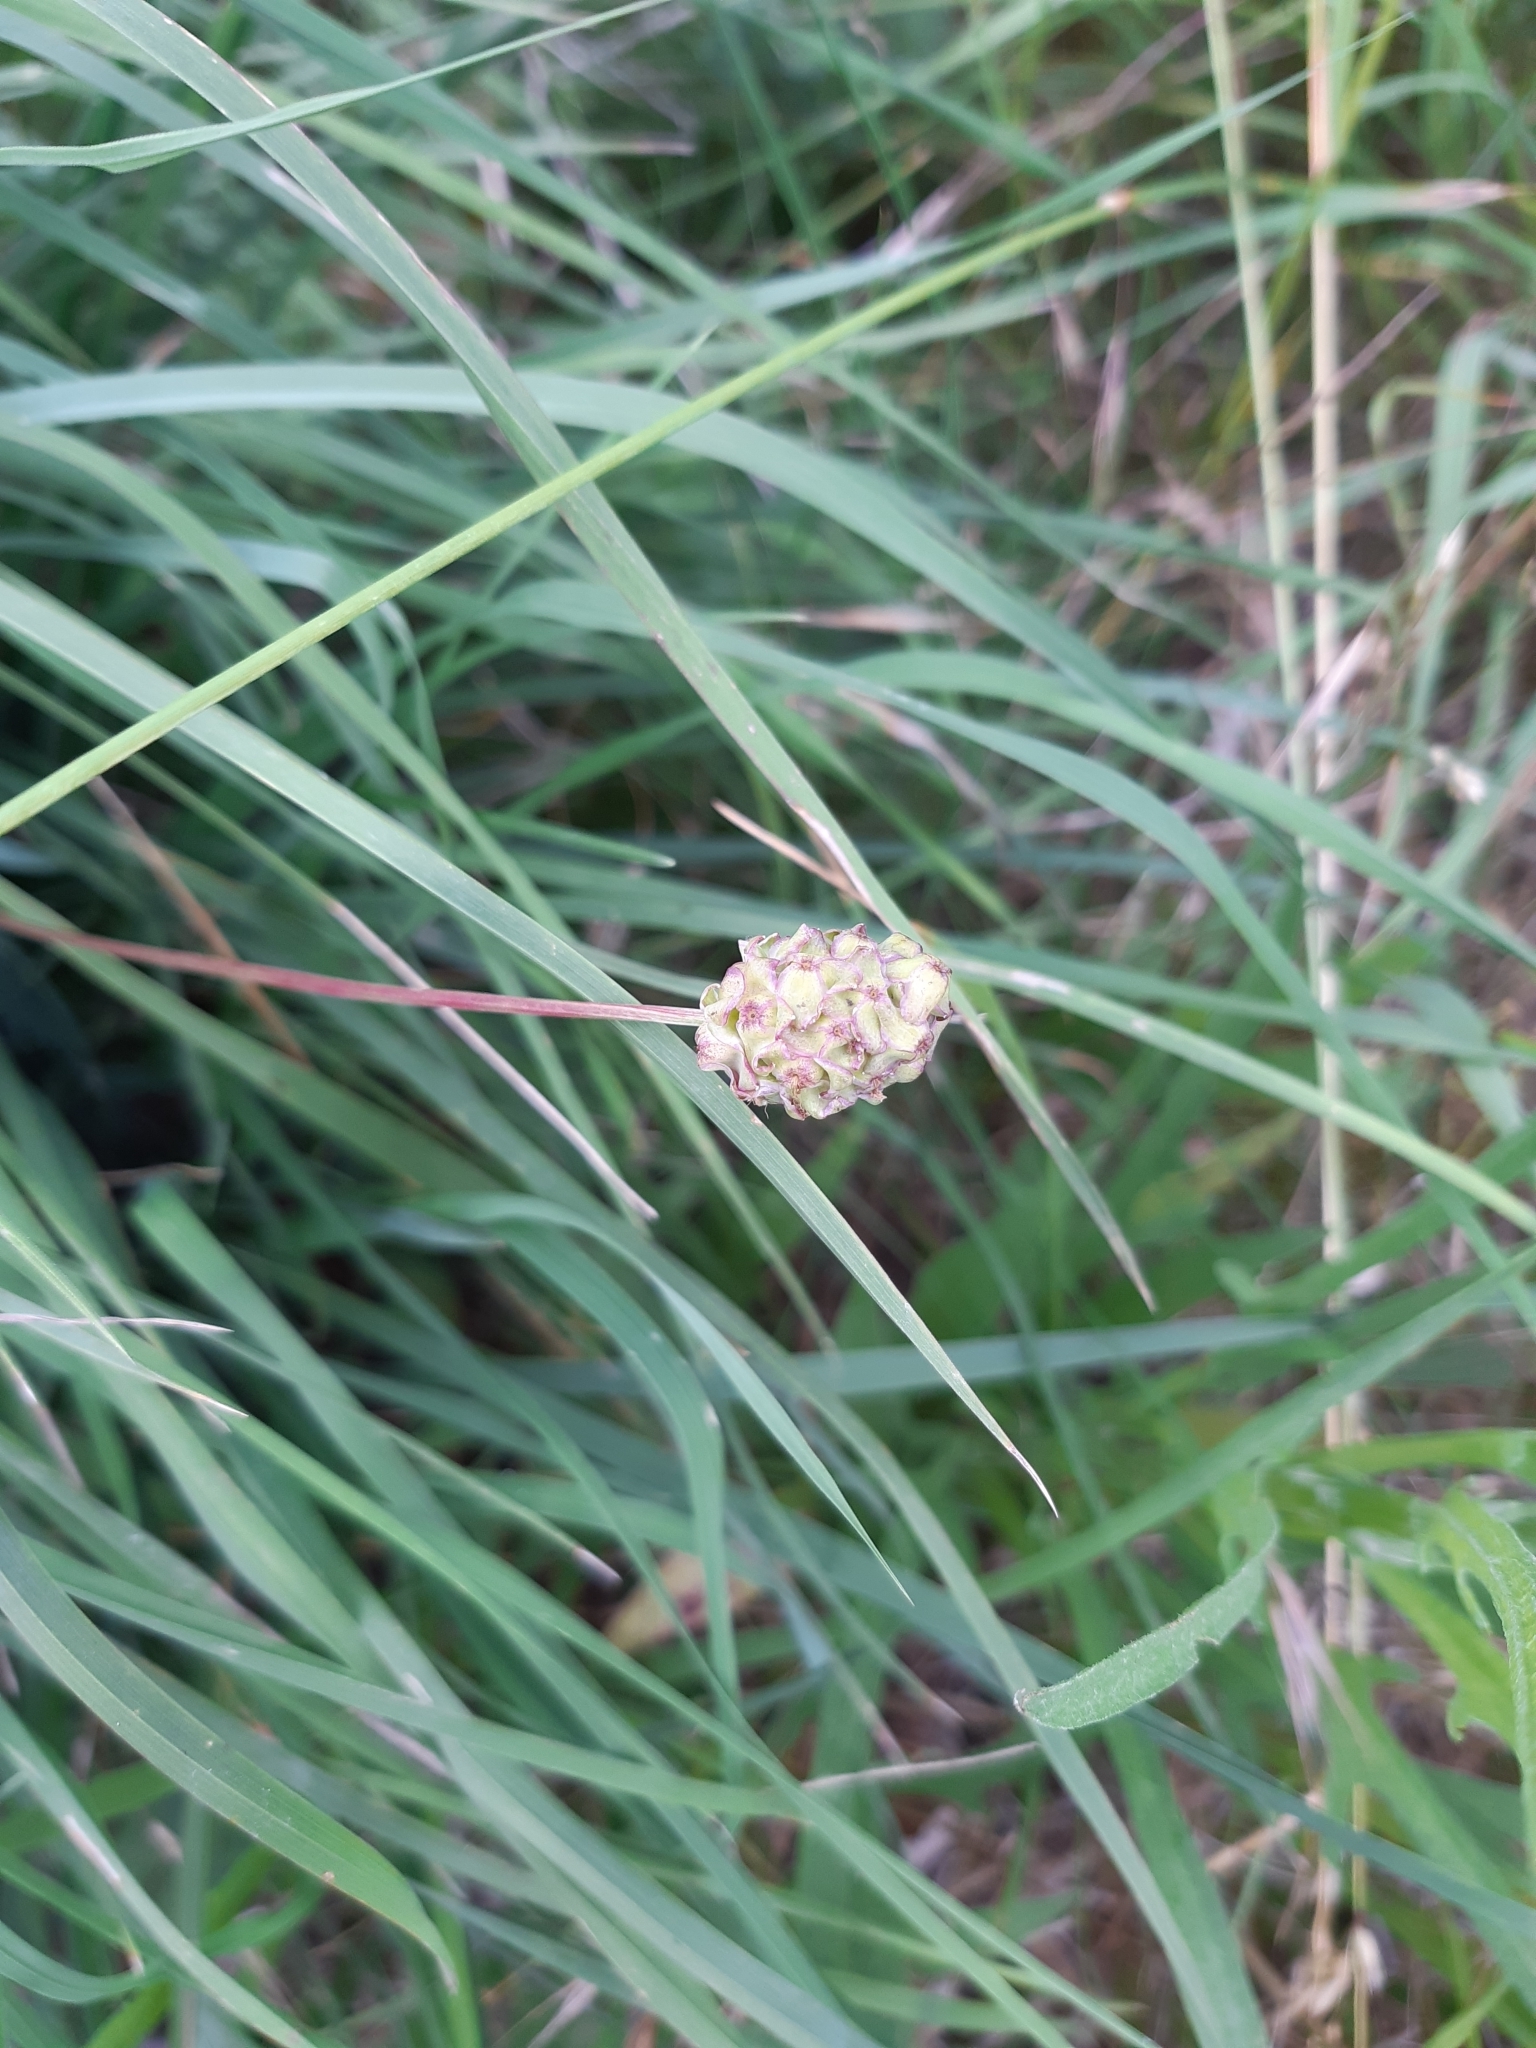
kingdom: Plantae
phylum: Tracheophyta
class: Magnoliopsida
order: Rosales
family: Rosaceae
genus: Poterium
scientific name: Poterium sanguisorba
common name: Salad burnet
